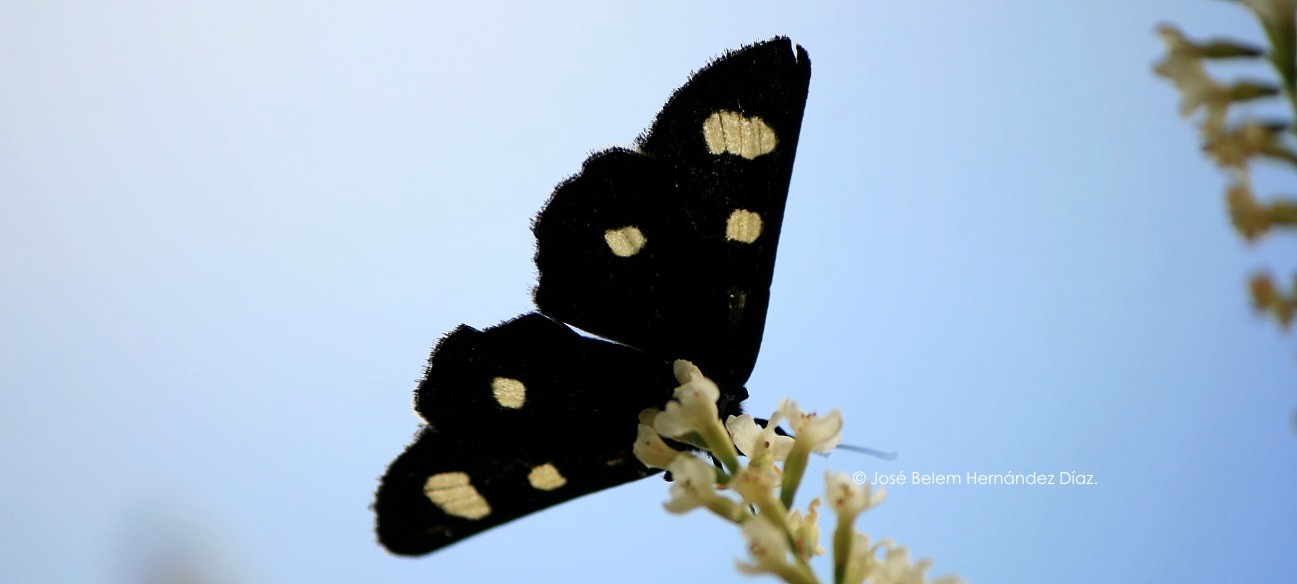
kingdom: Animalia
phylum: Arthropoda
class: Insecta
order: Lepidoptera
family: Noctuidae
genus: Alypiodes
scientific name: Alypiodes bimaculata
